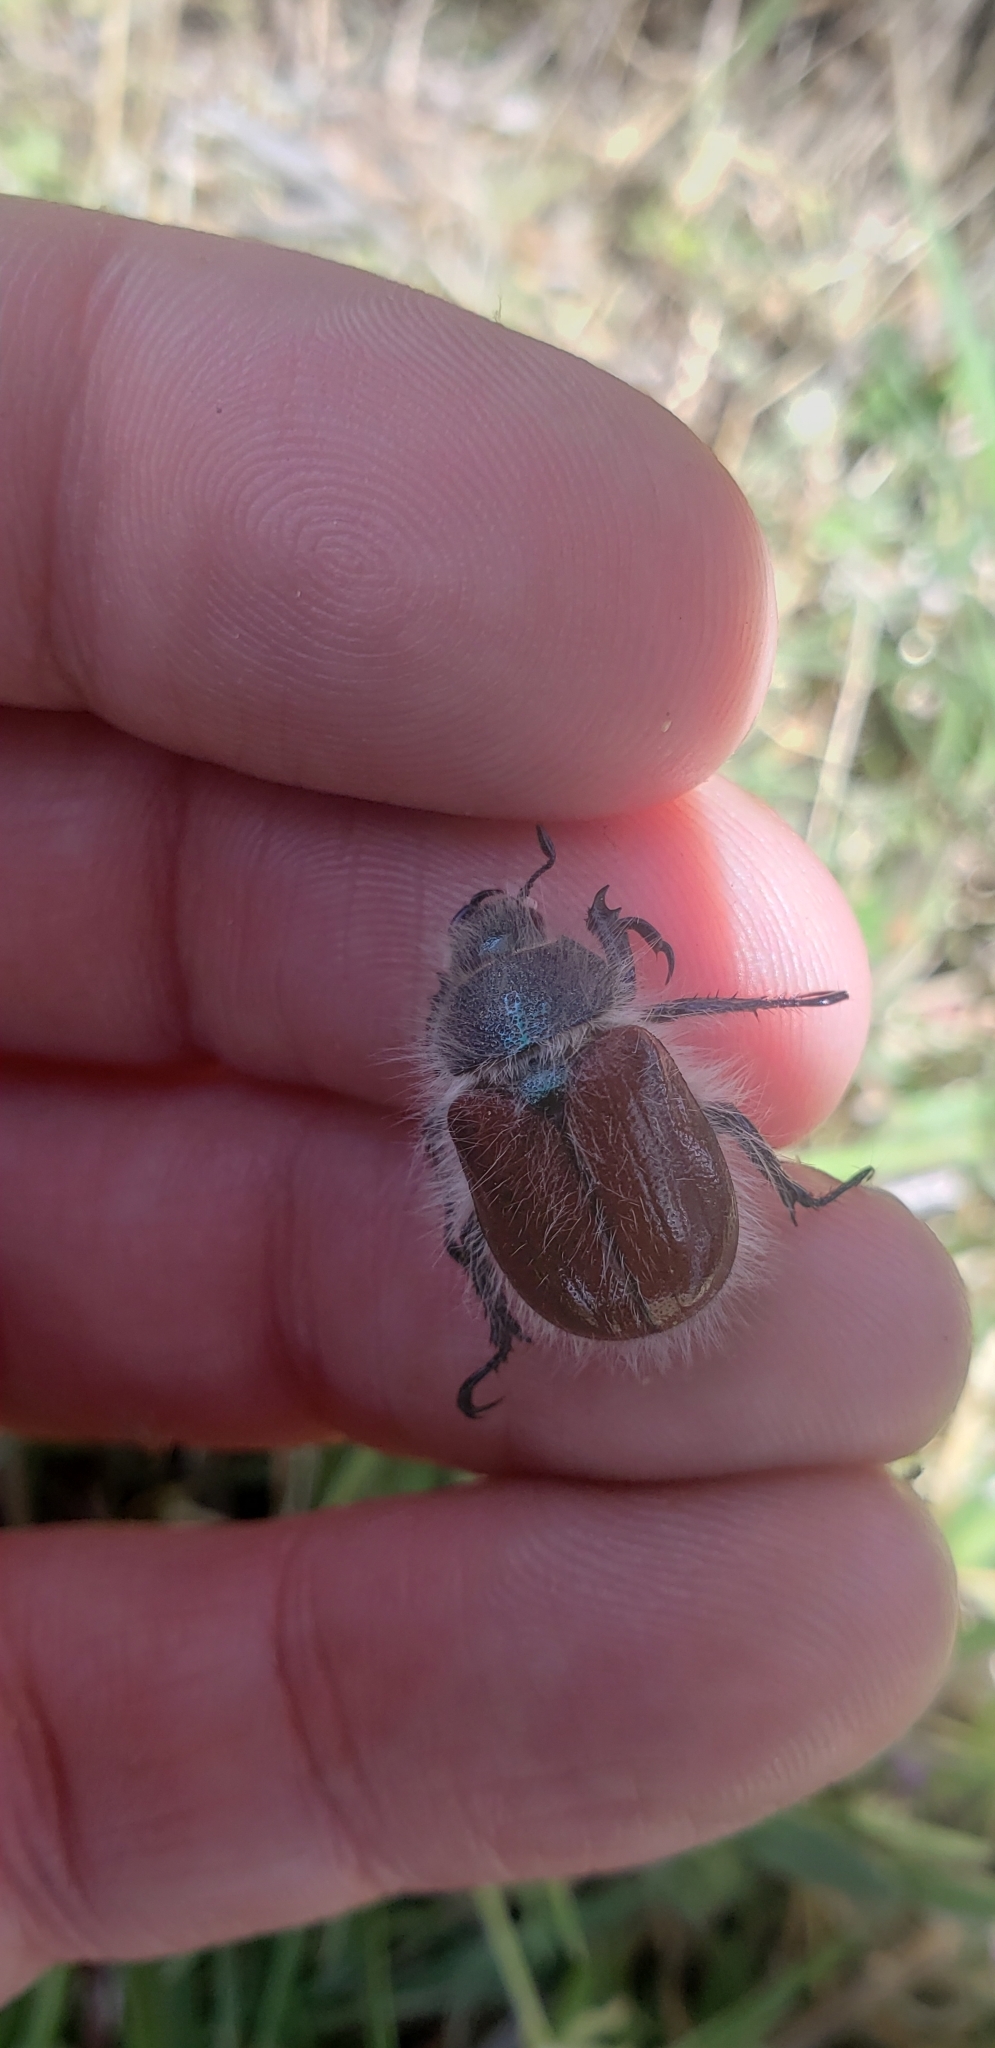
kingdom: Animalia
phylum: Arthropoda
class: Insecta
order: Coleoptera
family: Scarabaeidae
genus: Paracotalpa
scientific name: Paracotalpa granicollis
